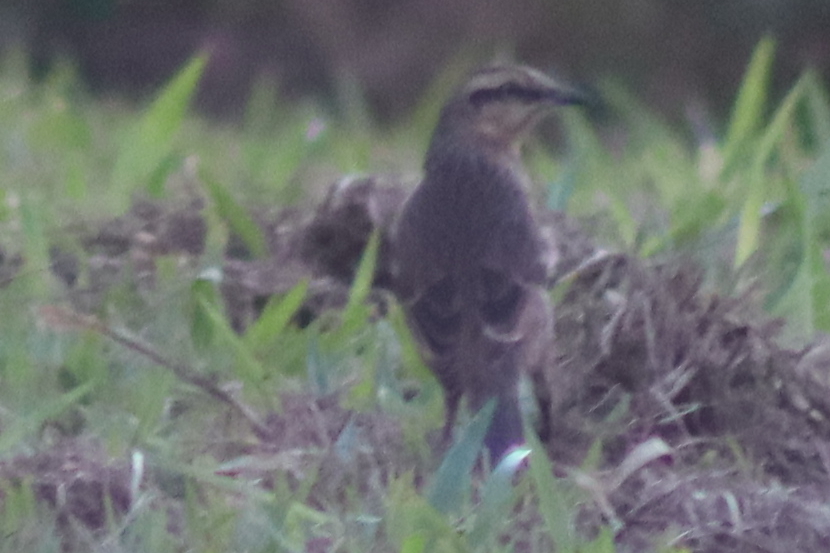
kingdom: Animalia
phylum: Chordata
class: Aves
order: Passeriformes
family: Mimidae
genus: Mimus
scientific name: Mimus saturninus
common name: Chalk-browed mockingbird
